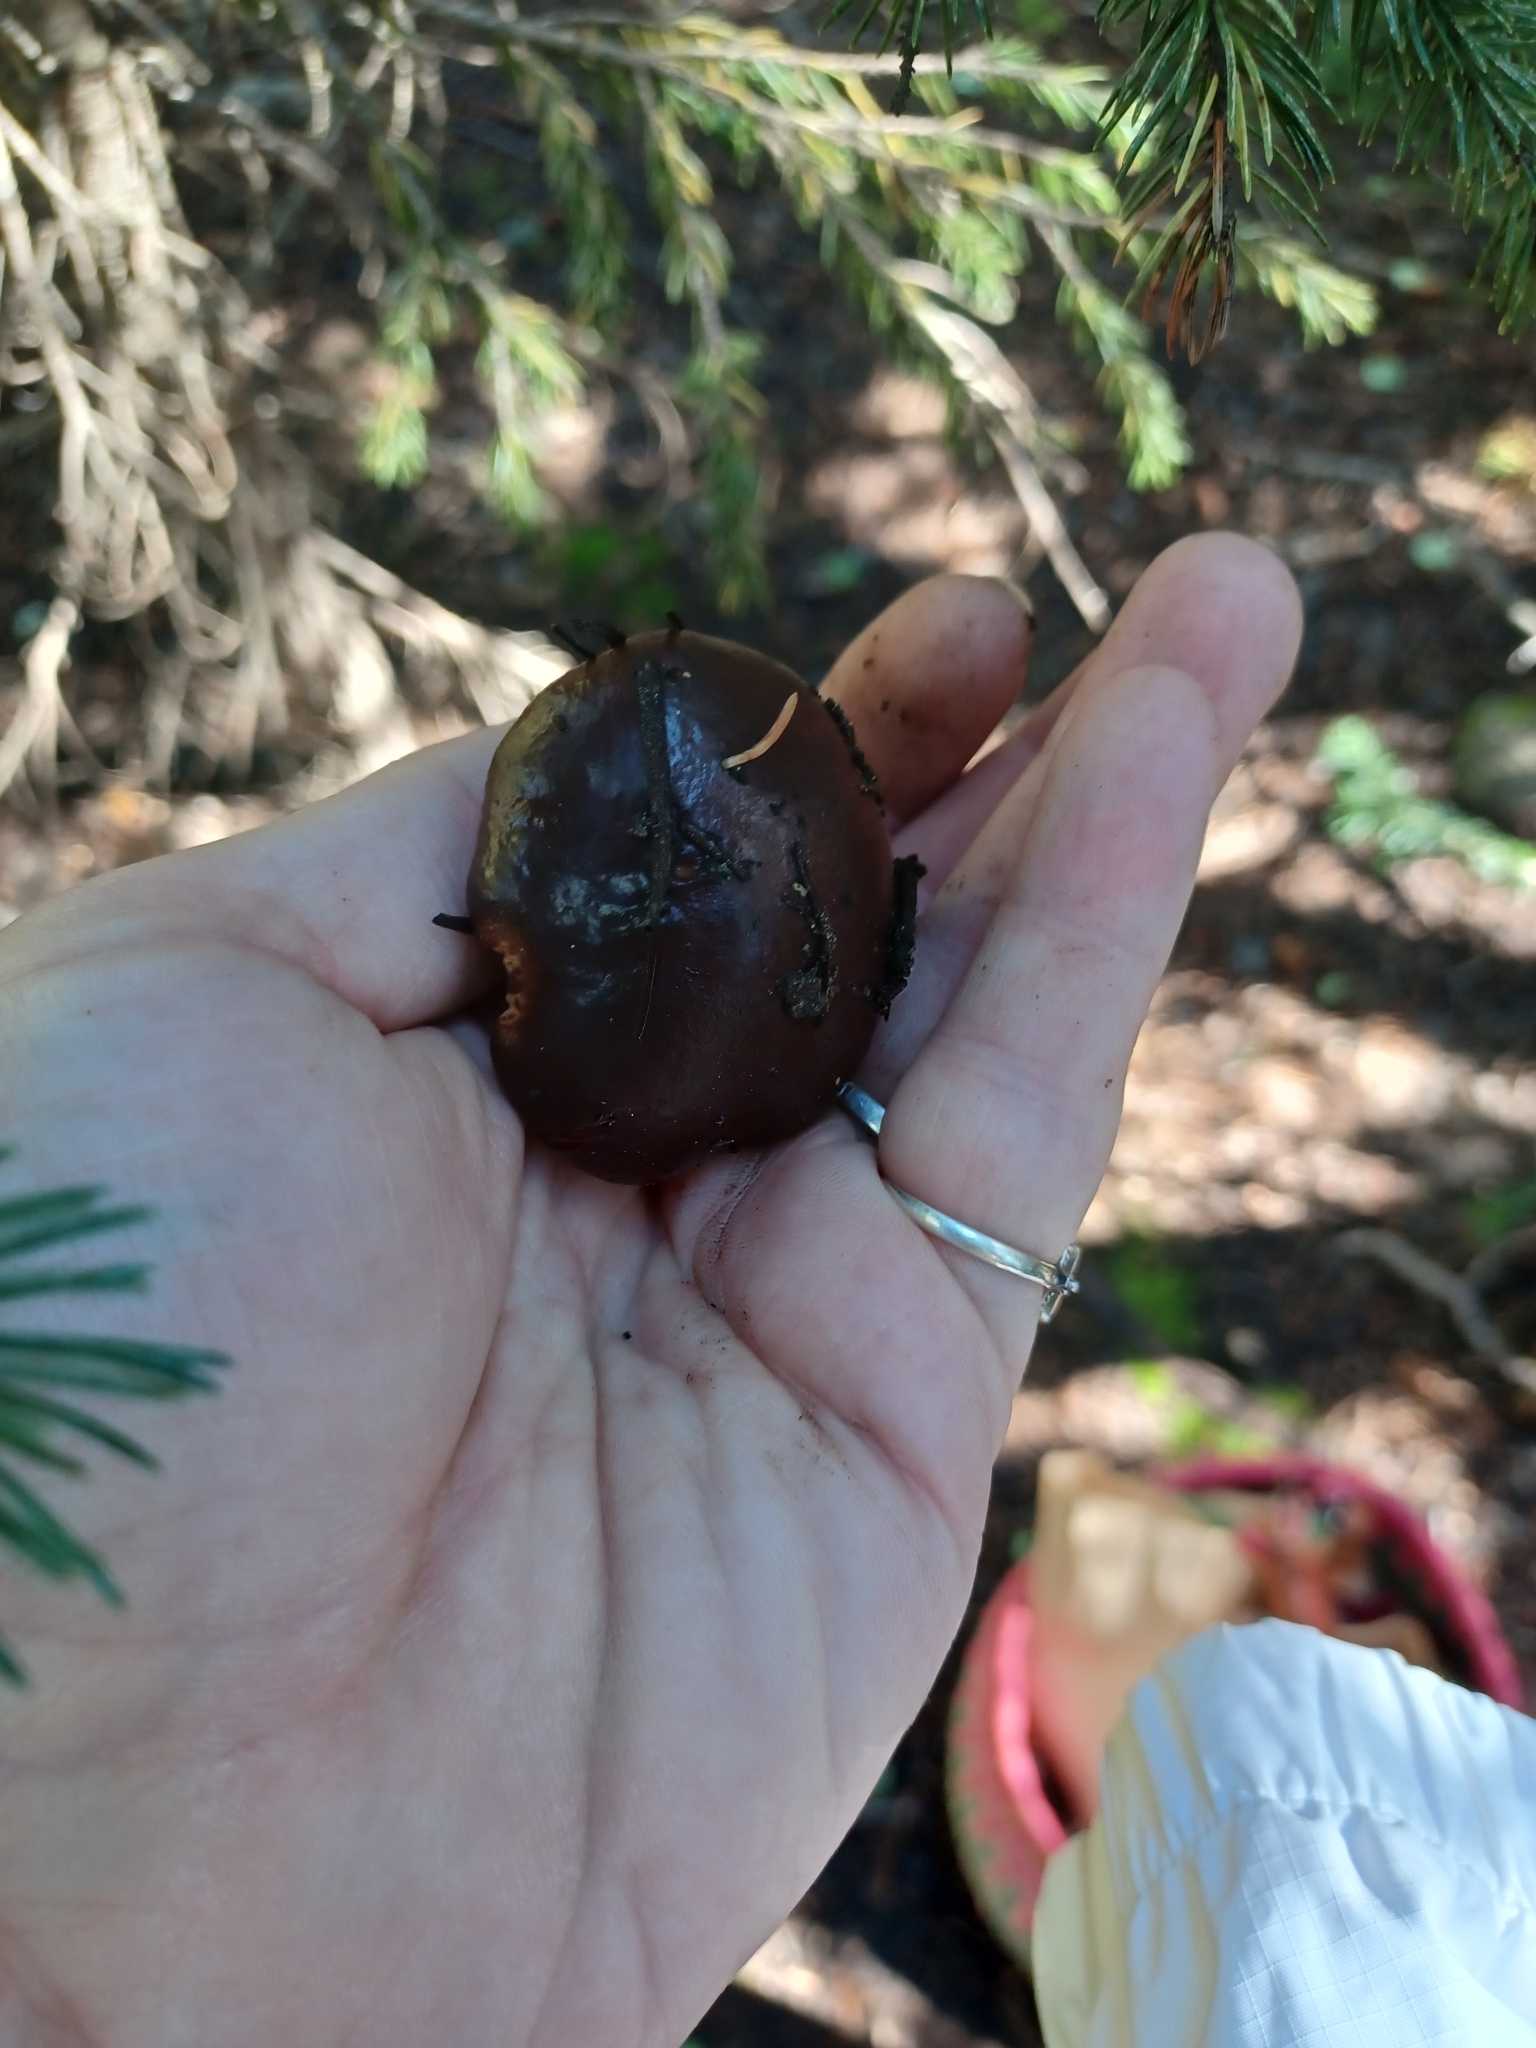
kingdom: Fungi
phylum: Basidiomycota
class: Agaricomycetes
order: Boletales
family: Suillaceae
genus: Suillus
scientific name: Suillus brevipes
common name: Short-stalked suillus
